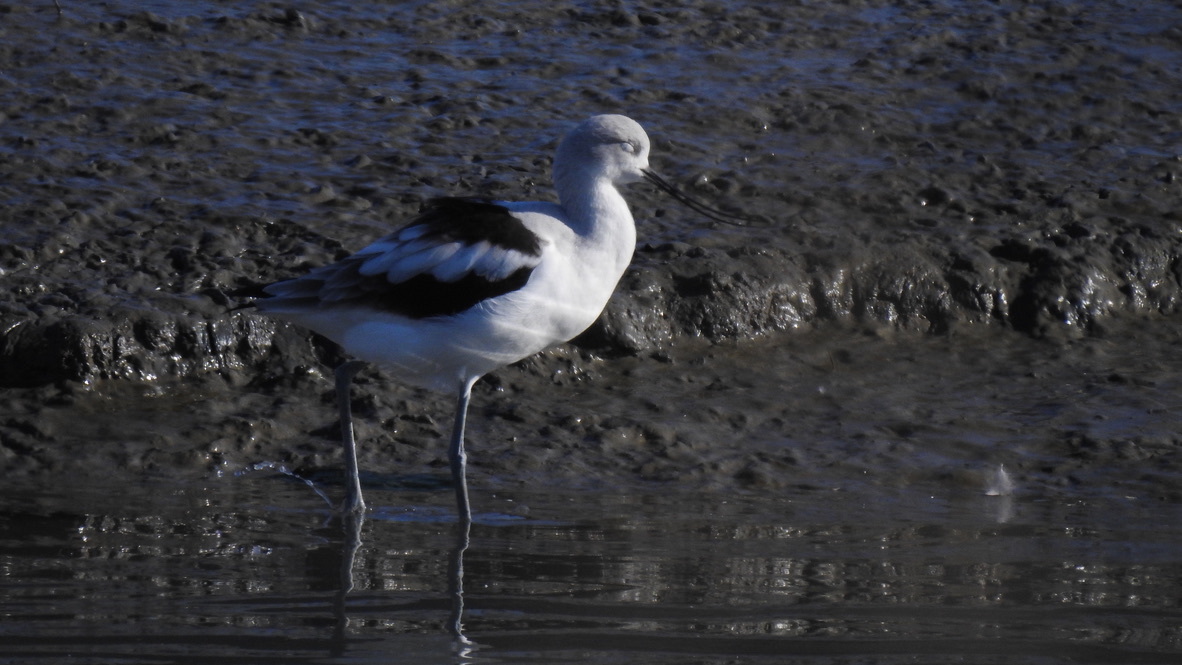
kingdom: Animalia
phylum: Chordata
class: Aves
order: Charadriiformes
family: Recurvirostridae
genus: Recurvirostra
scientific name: Recurvirostra americana
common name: American avocet
